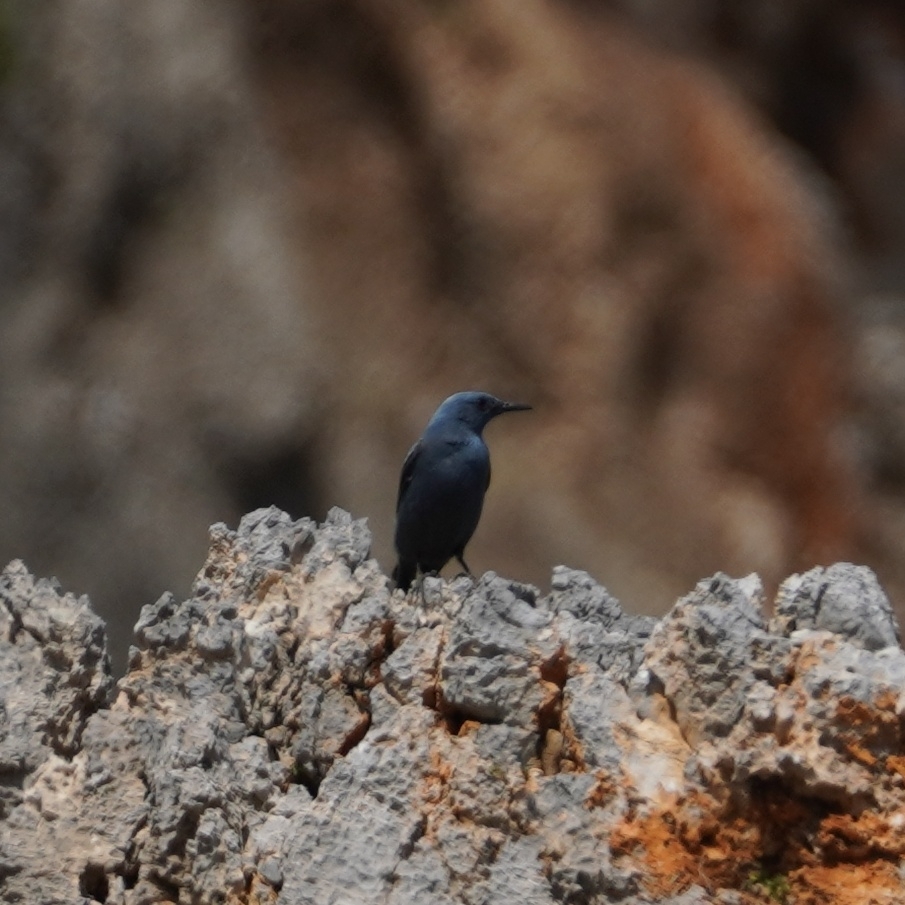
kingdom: Animalia
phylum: Chordata
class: Aves
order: Passeriformes
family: Muscicapidae
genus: Monticola
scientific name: Monticola solitarius
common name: Blue rock thrush
